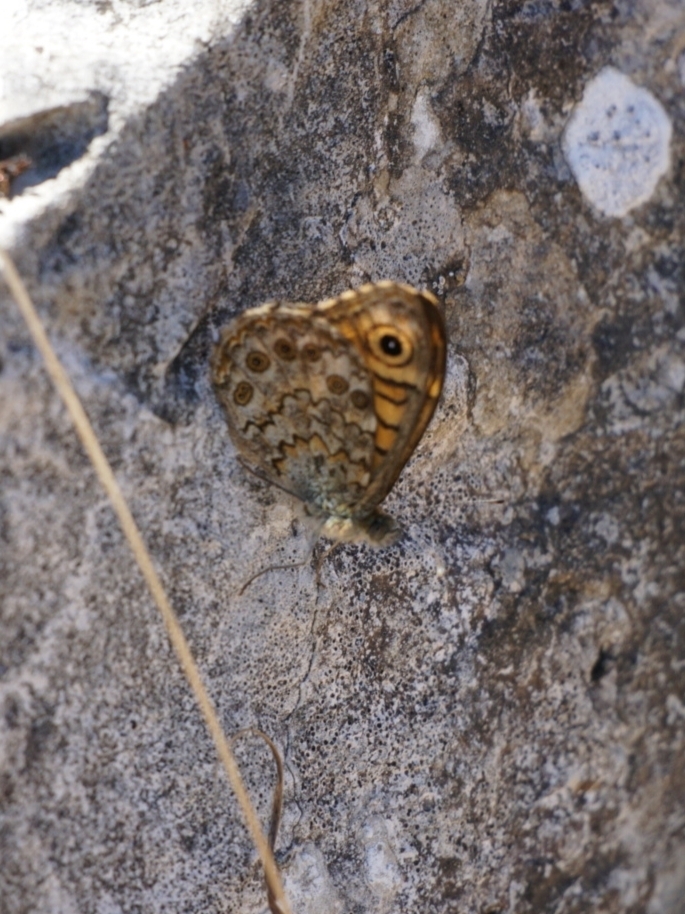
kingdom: Animalia
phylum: Arthropoda
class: Insecta
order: Lepidoptera
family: Nymphalidae
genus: Pararge
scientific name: Pararge Lasiommata megera
